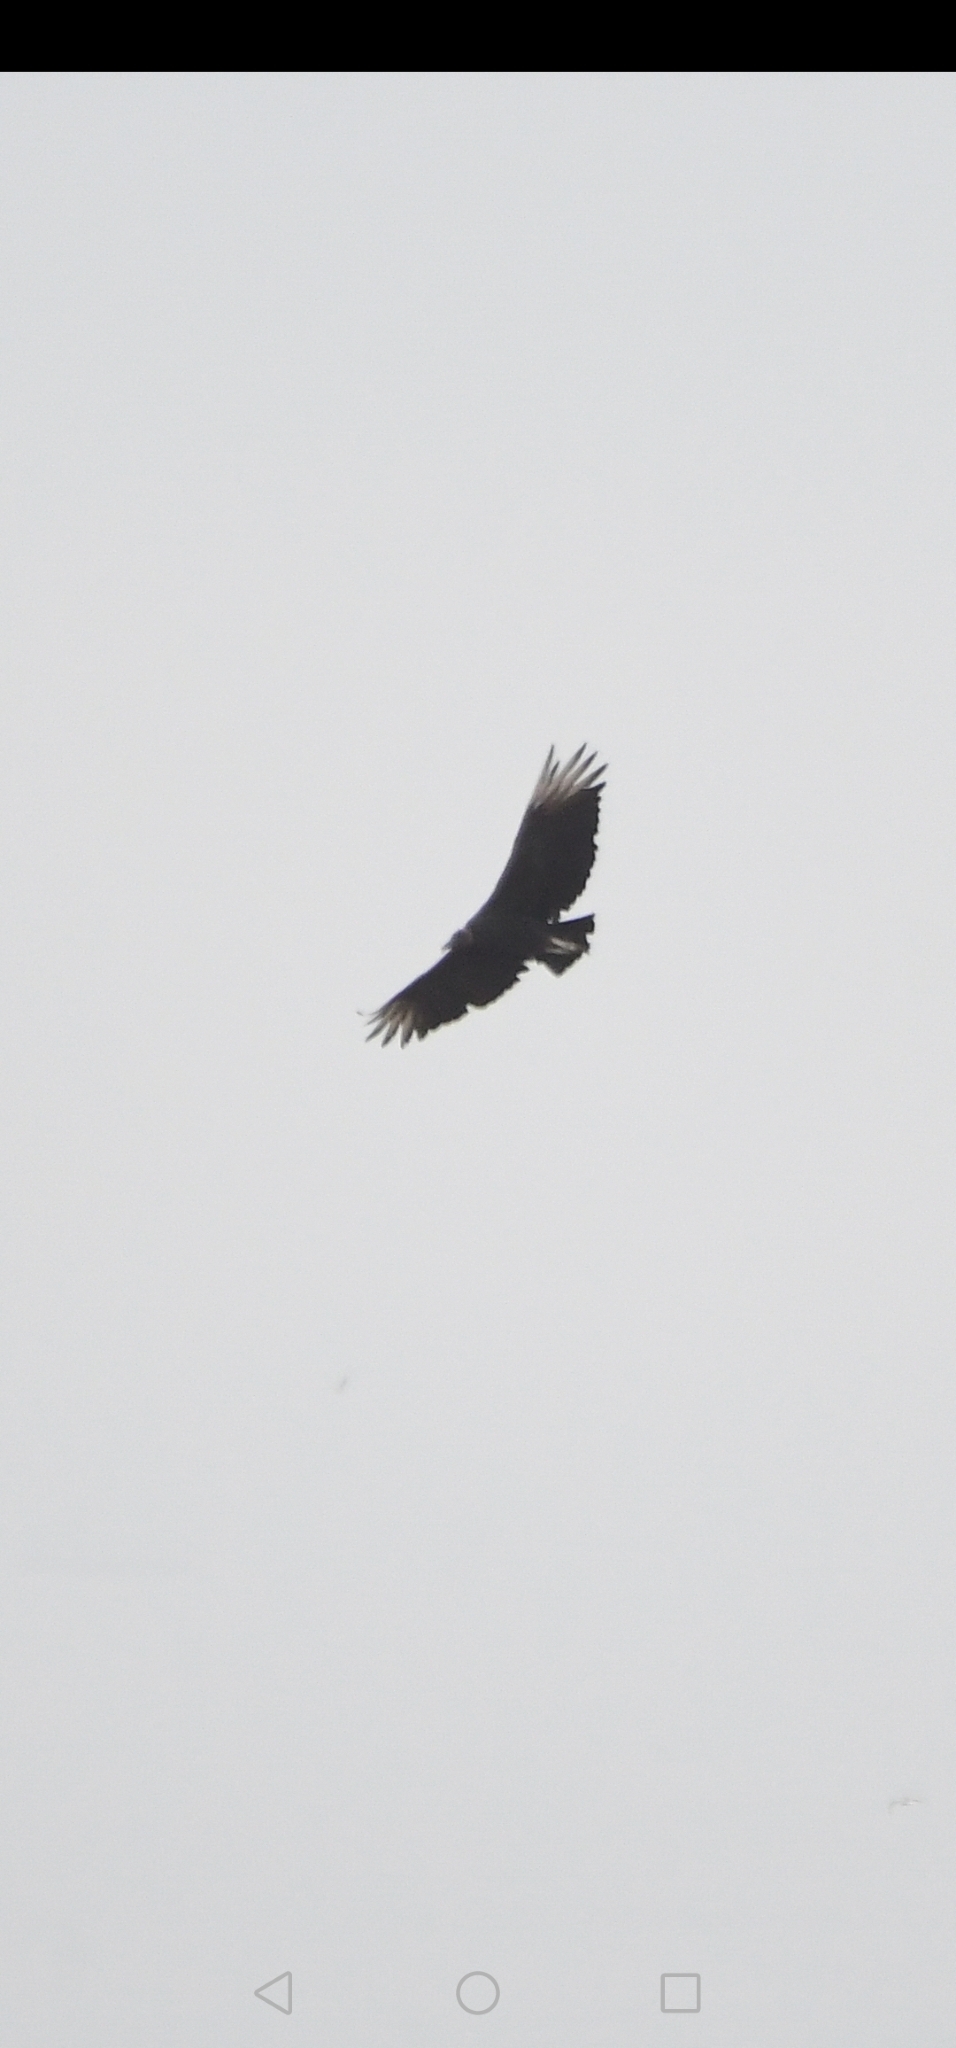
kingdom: Animalia
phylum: Chordata
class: Aves
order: Accipitriformes
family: Cathartidae
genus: Coragyps
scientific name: Coragyps atratus
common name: Black vulture
